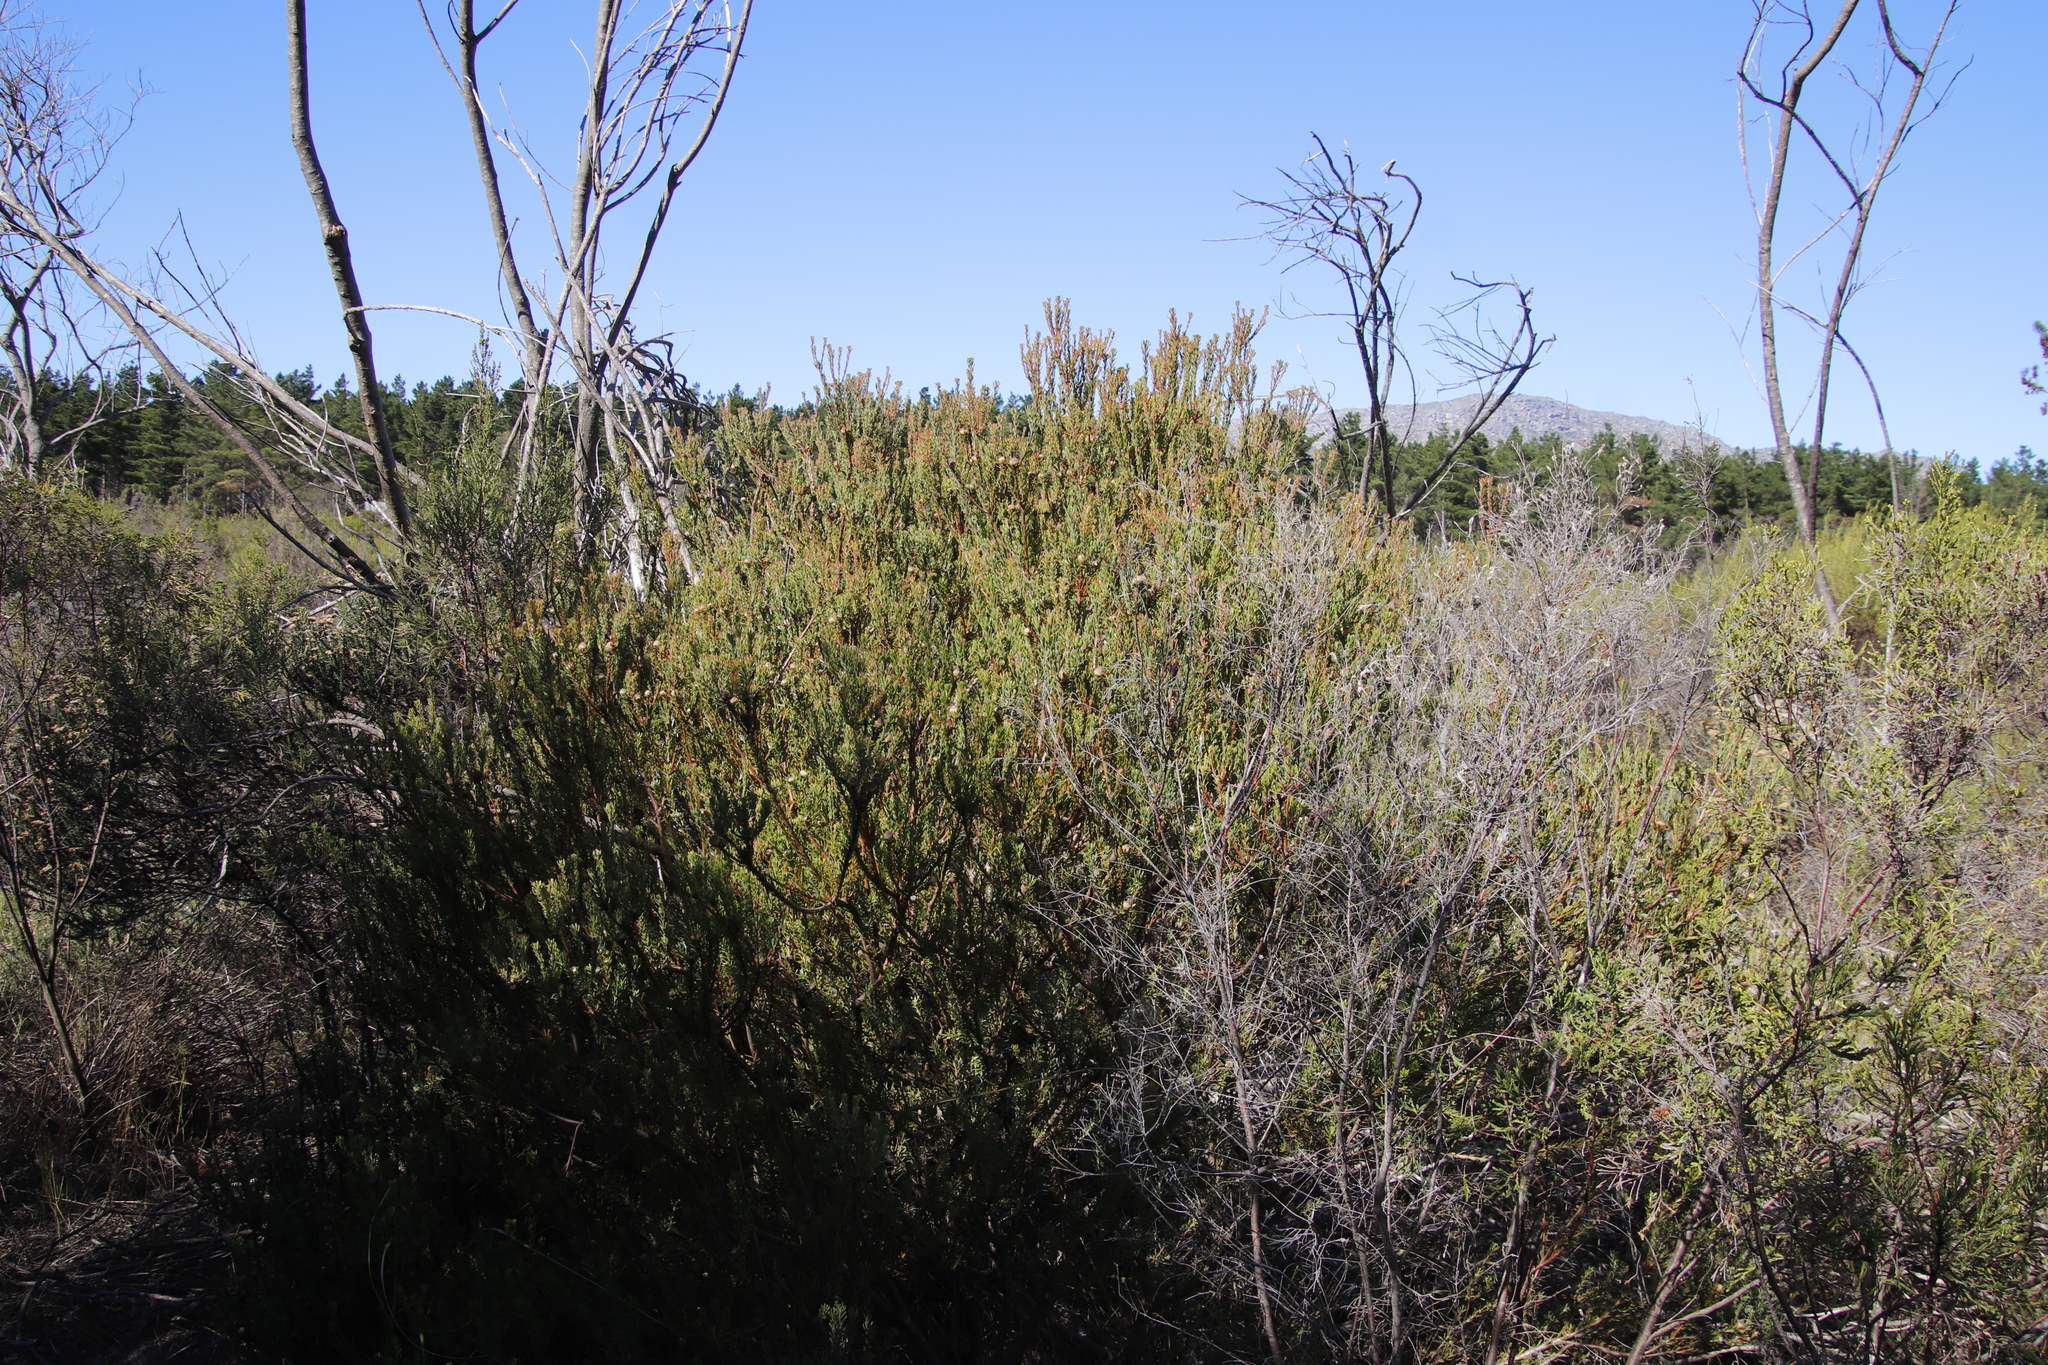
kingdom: Plantae
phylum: Tracheophyta
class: Magnoliopsida
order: Proteales
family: Proteaceae
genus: Leucadendron
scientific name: Leucadendron levisanus
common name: Cape flats conebush
